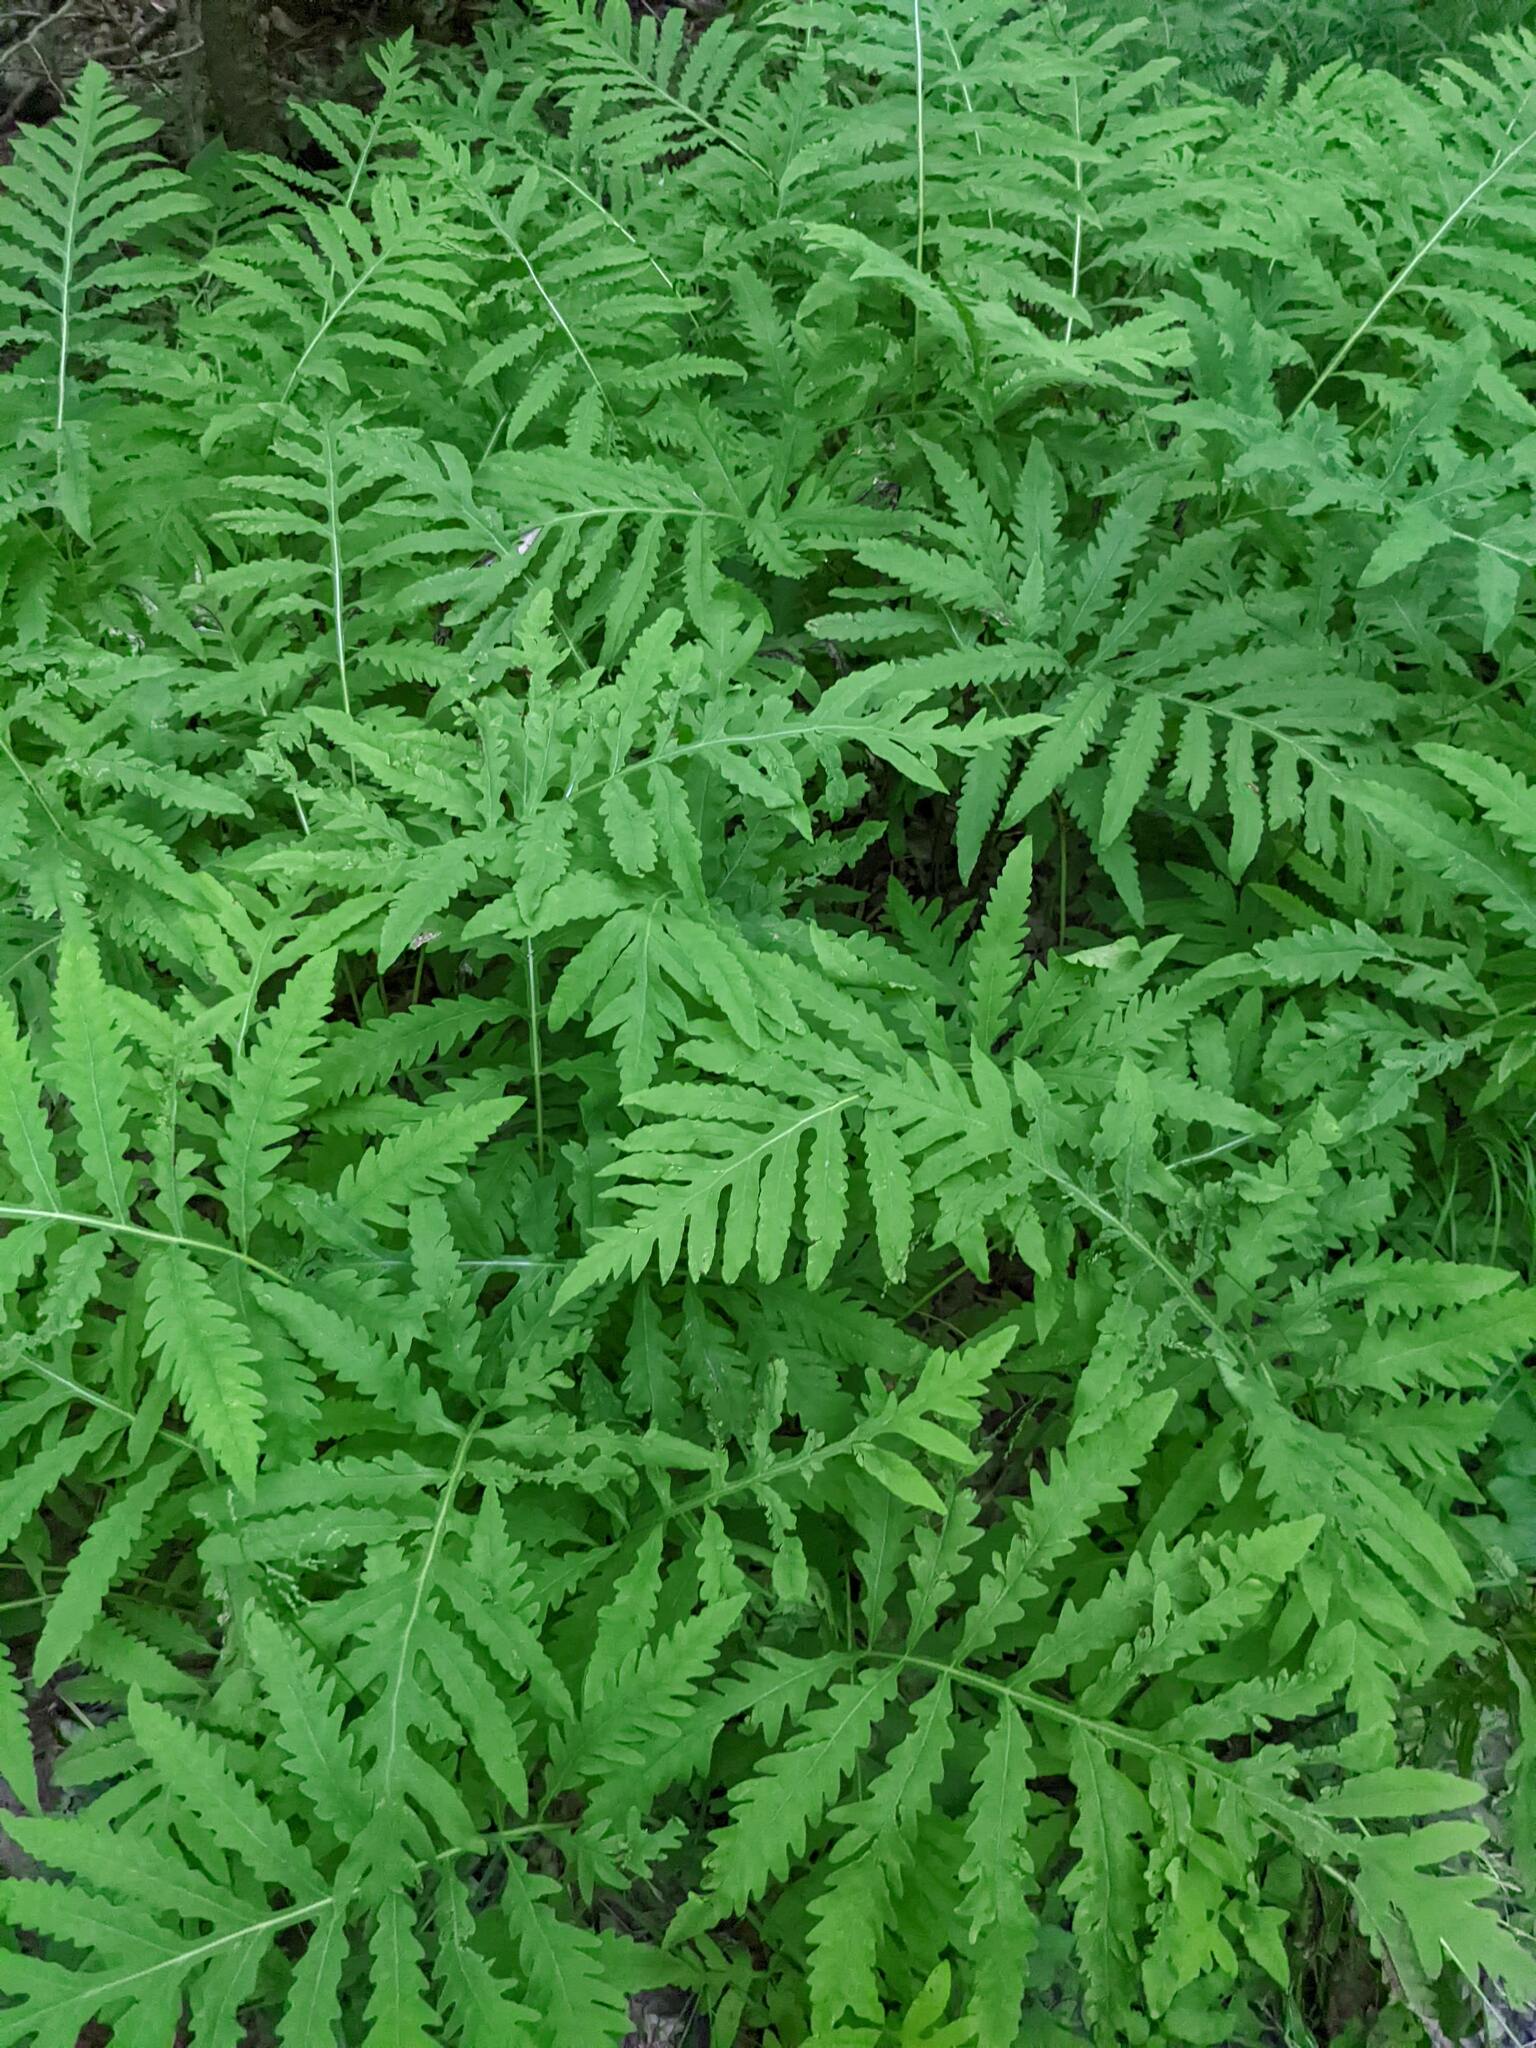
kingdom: Plantae
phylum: Tracheophyta
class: Polypodiopsida
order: Polypodiales
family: Onocleaceae
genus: Onoclea
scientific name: Onoclea sensibilis
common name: Sensitive fern
